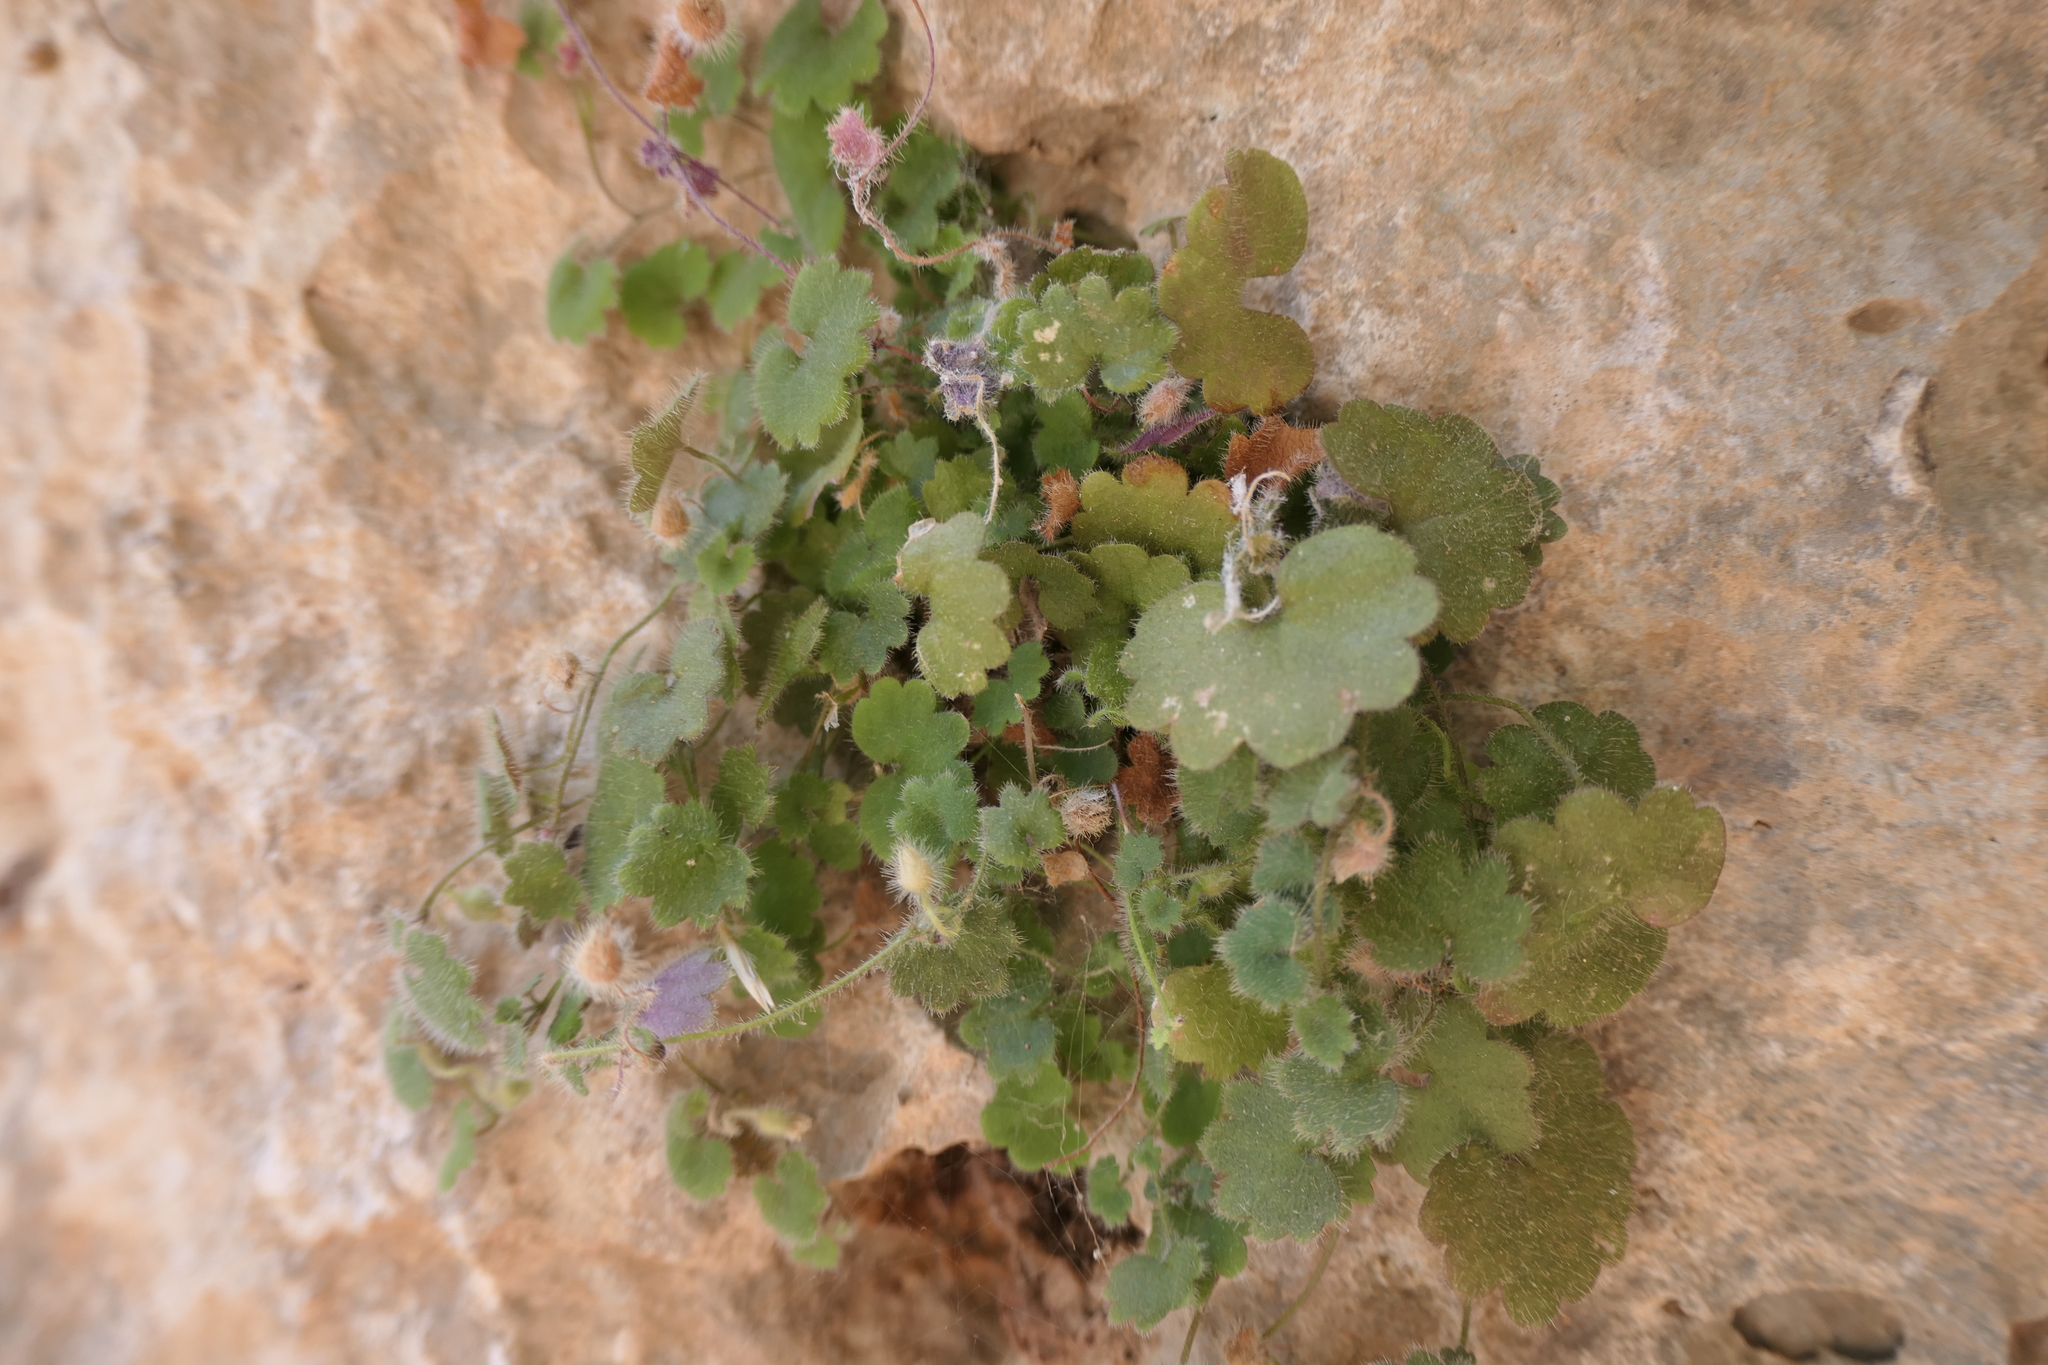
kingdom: Plantae
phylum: Tracheophyta
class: Magnoliopsida
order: Lamiales
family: Plantaginaceae
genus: Sibthorpia
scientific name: Sibthorpia africana
